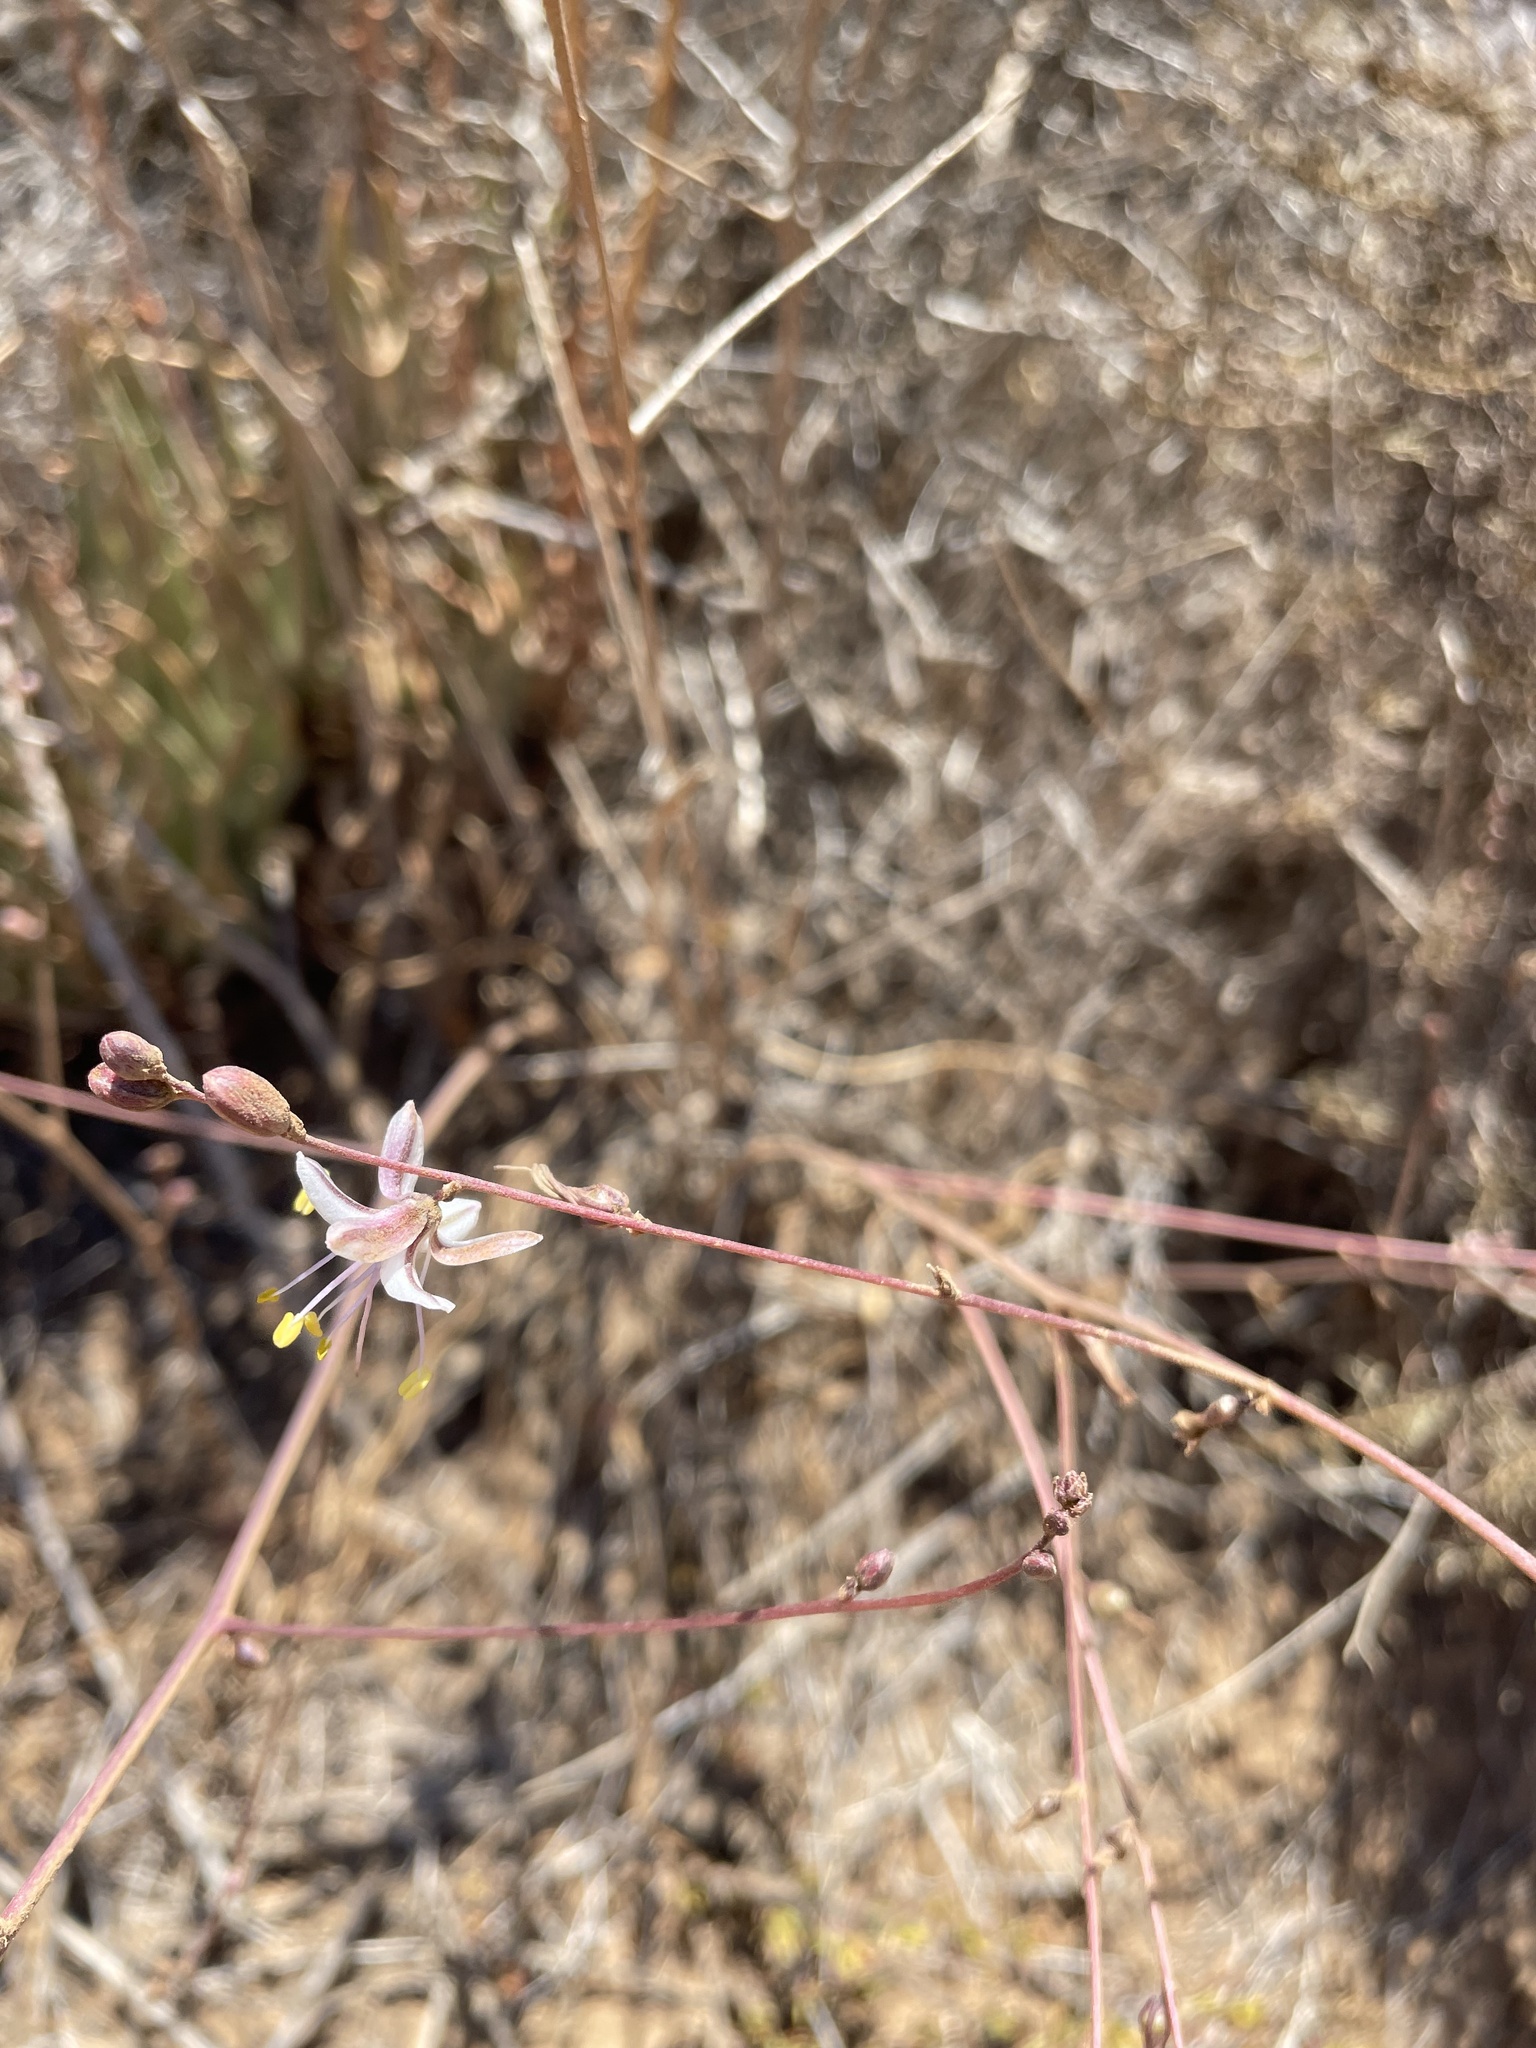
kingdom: Plantae
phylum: Tracheophyta
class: Liliopsida
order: Asparagales
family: Asparagaceae
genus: Hooveria
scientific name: Hooveria parviflora
